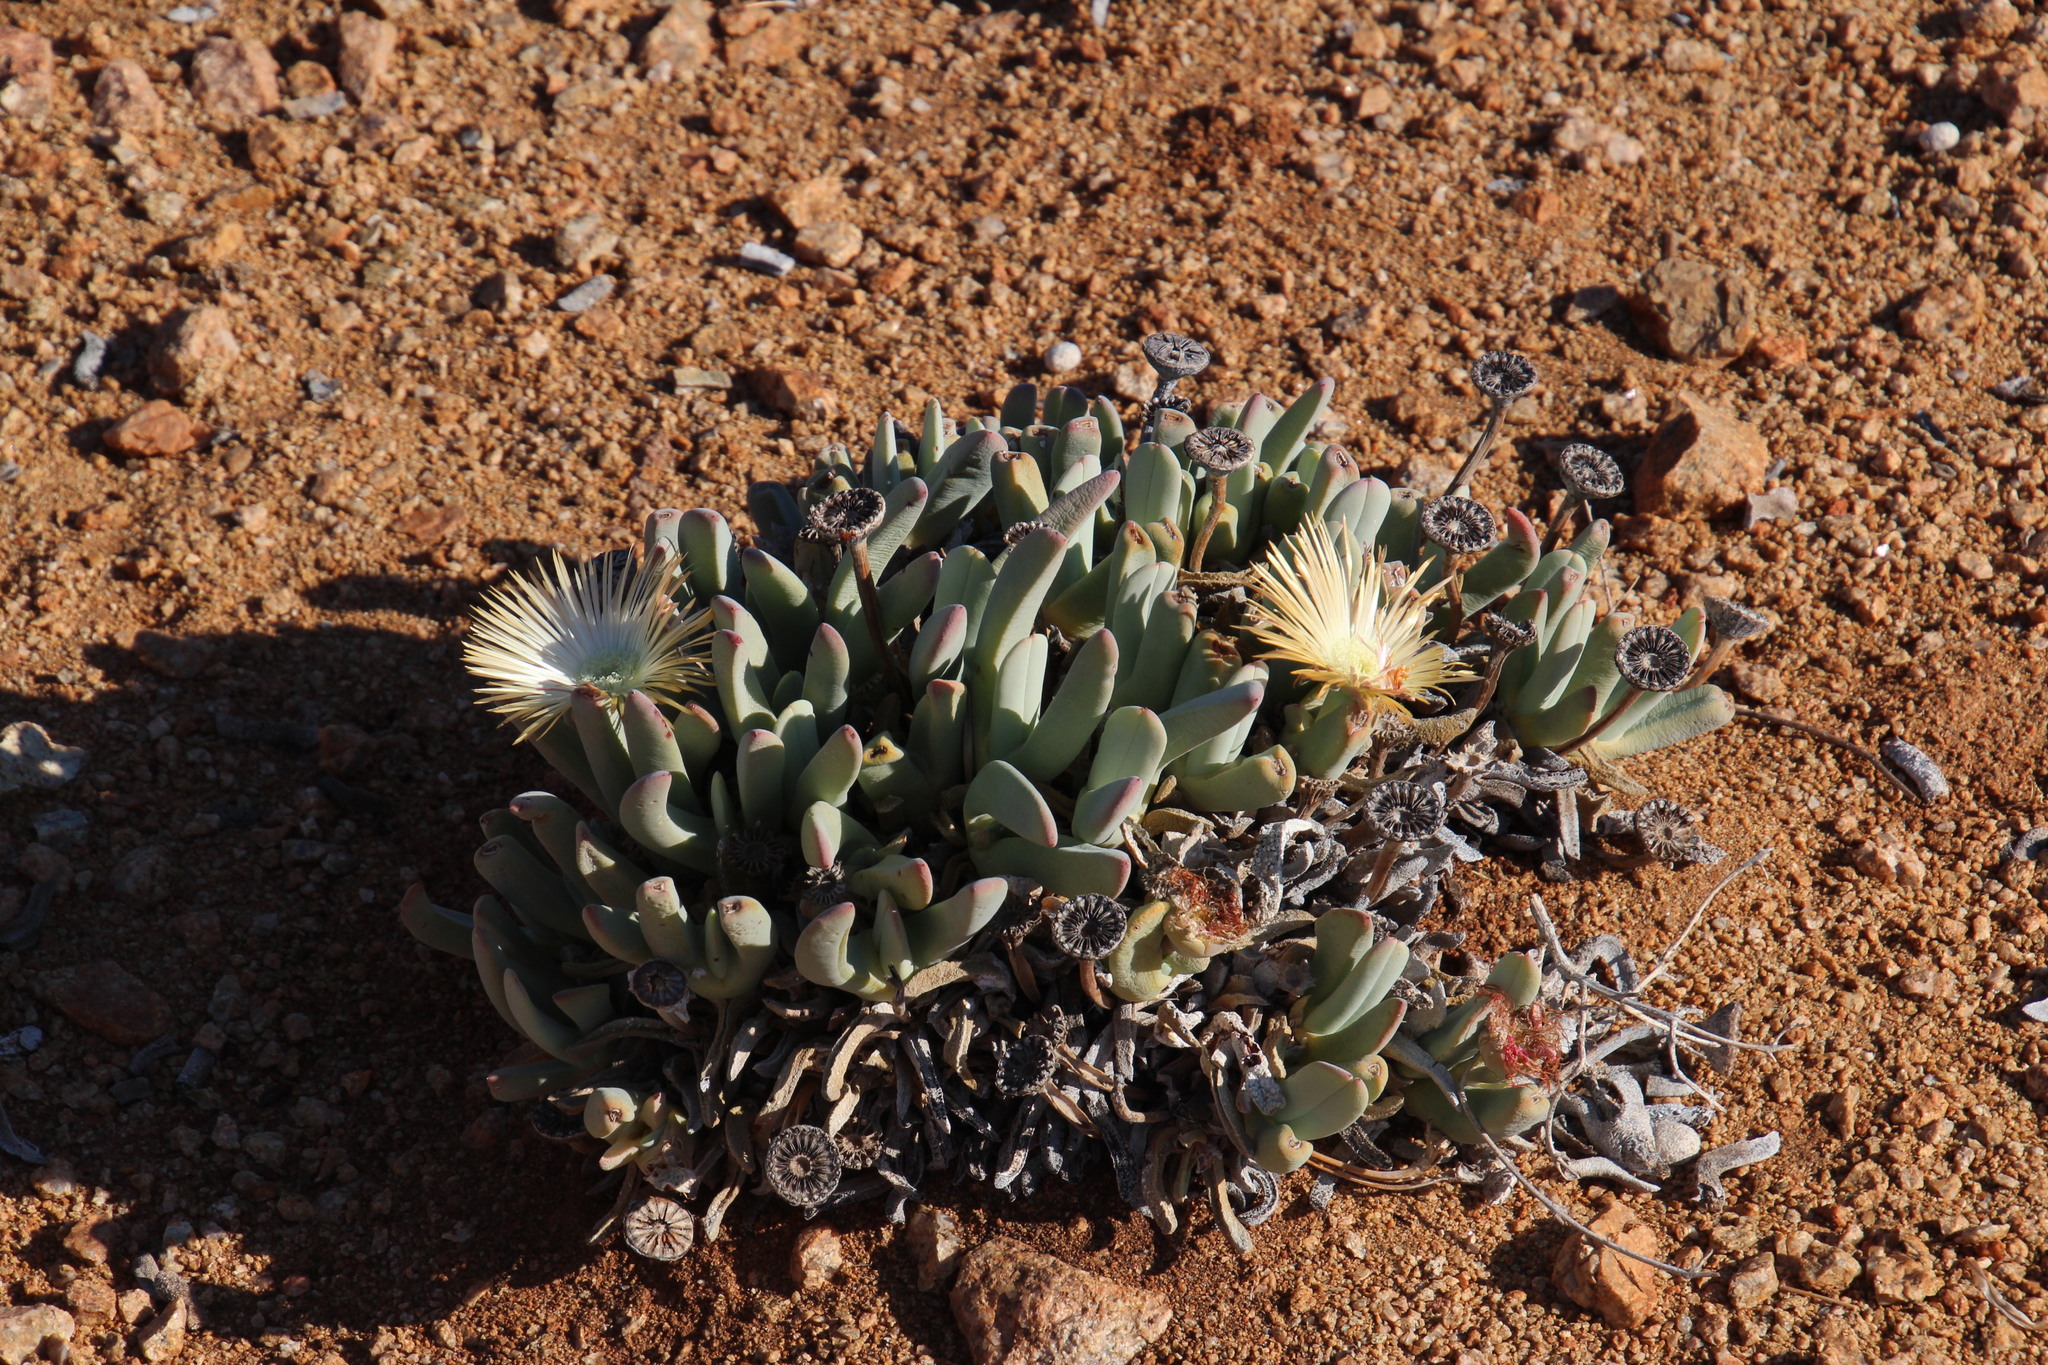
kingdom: Plantae
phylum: Tracheophyta
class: Magnoliopsida
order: Caryophyllales
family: Aizoaceae
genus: Cheiridopsis
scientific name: Cheiridopsis denticulata
